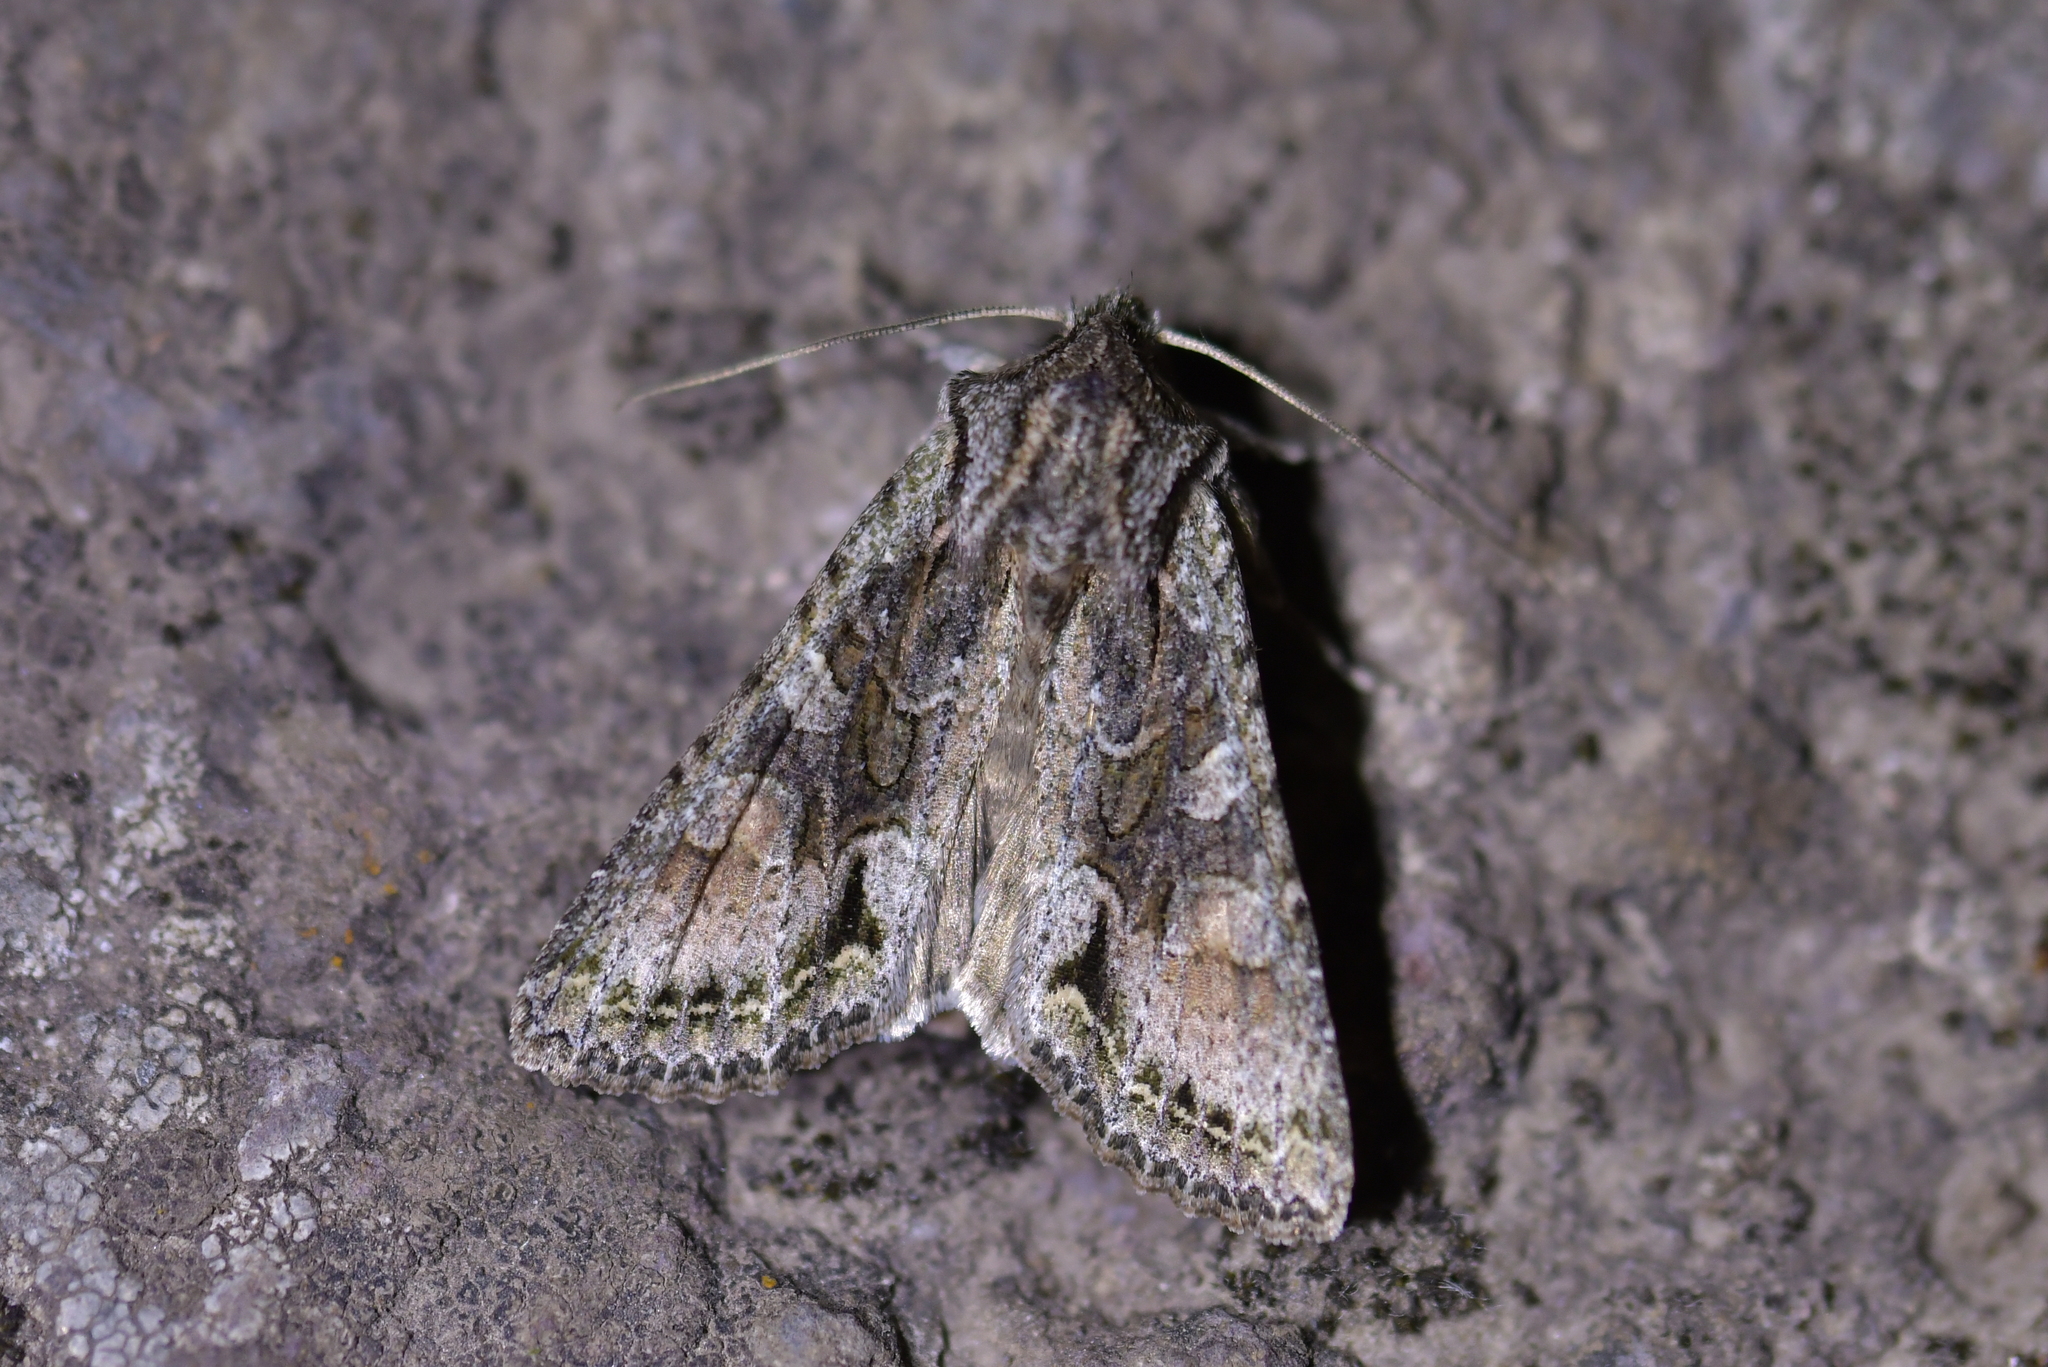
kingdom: Animalia
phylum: Arthropoda
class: Insecta
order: Lepidoptera
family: Noctuidae
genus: Ichneutica
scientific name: Ichneutica mutans
